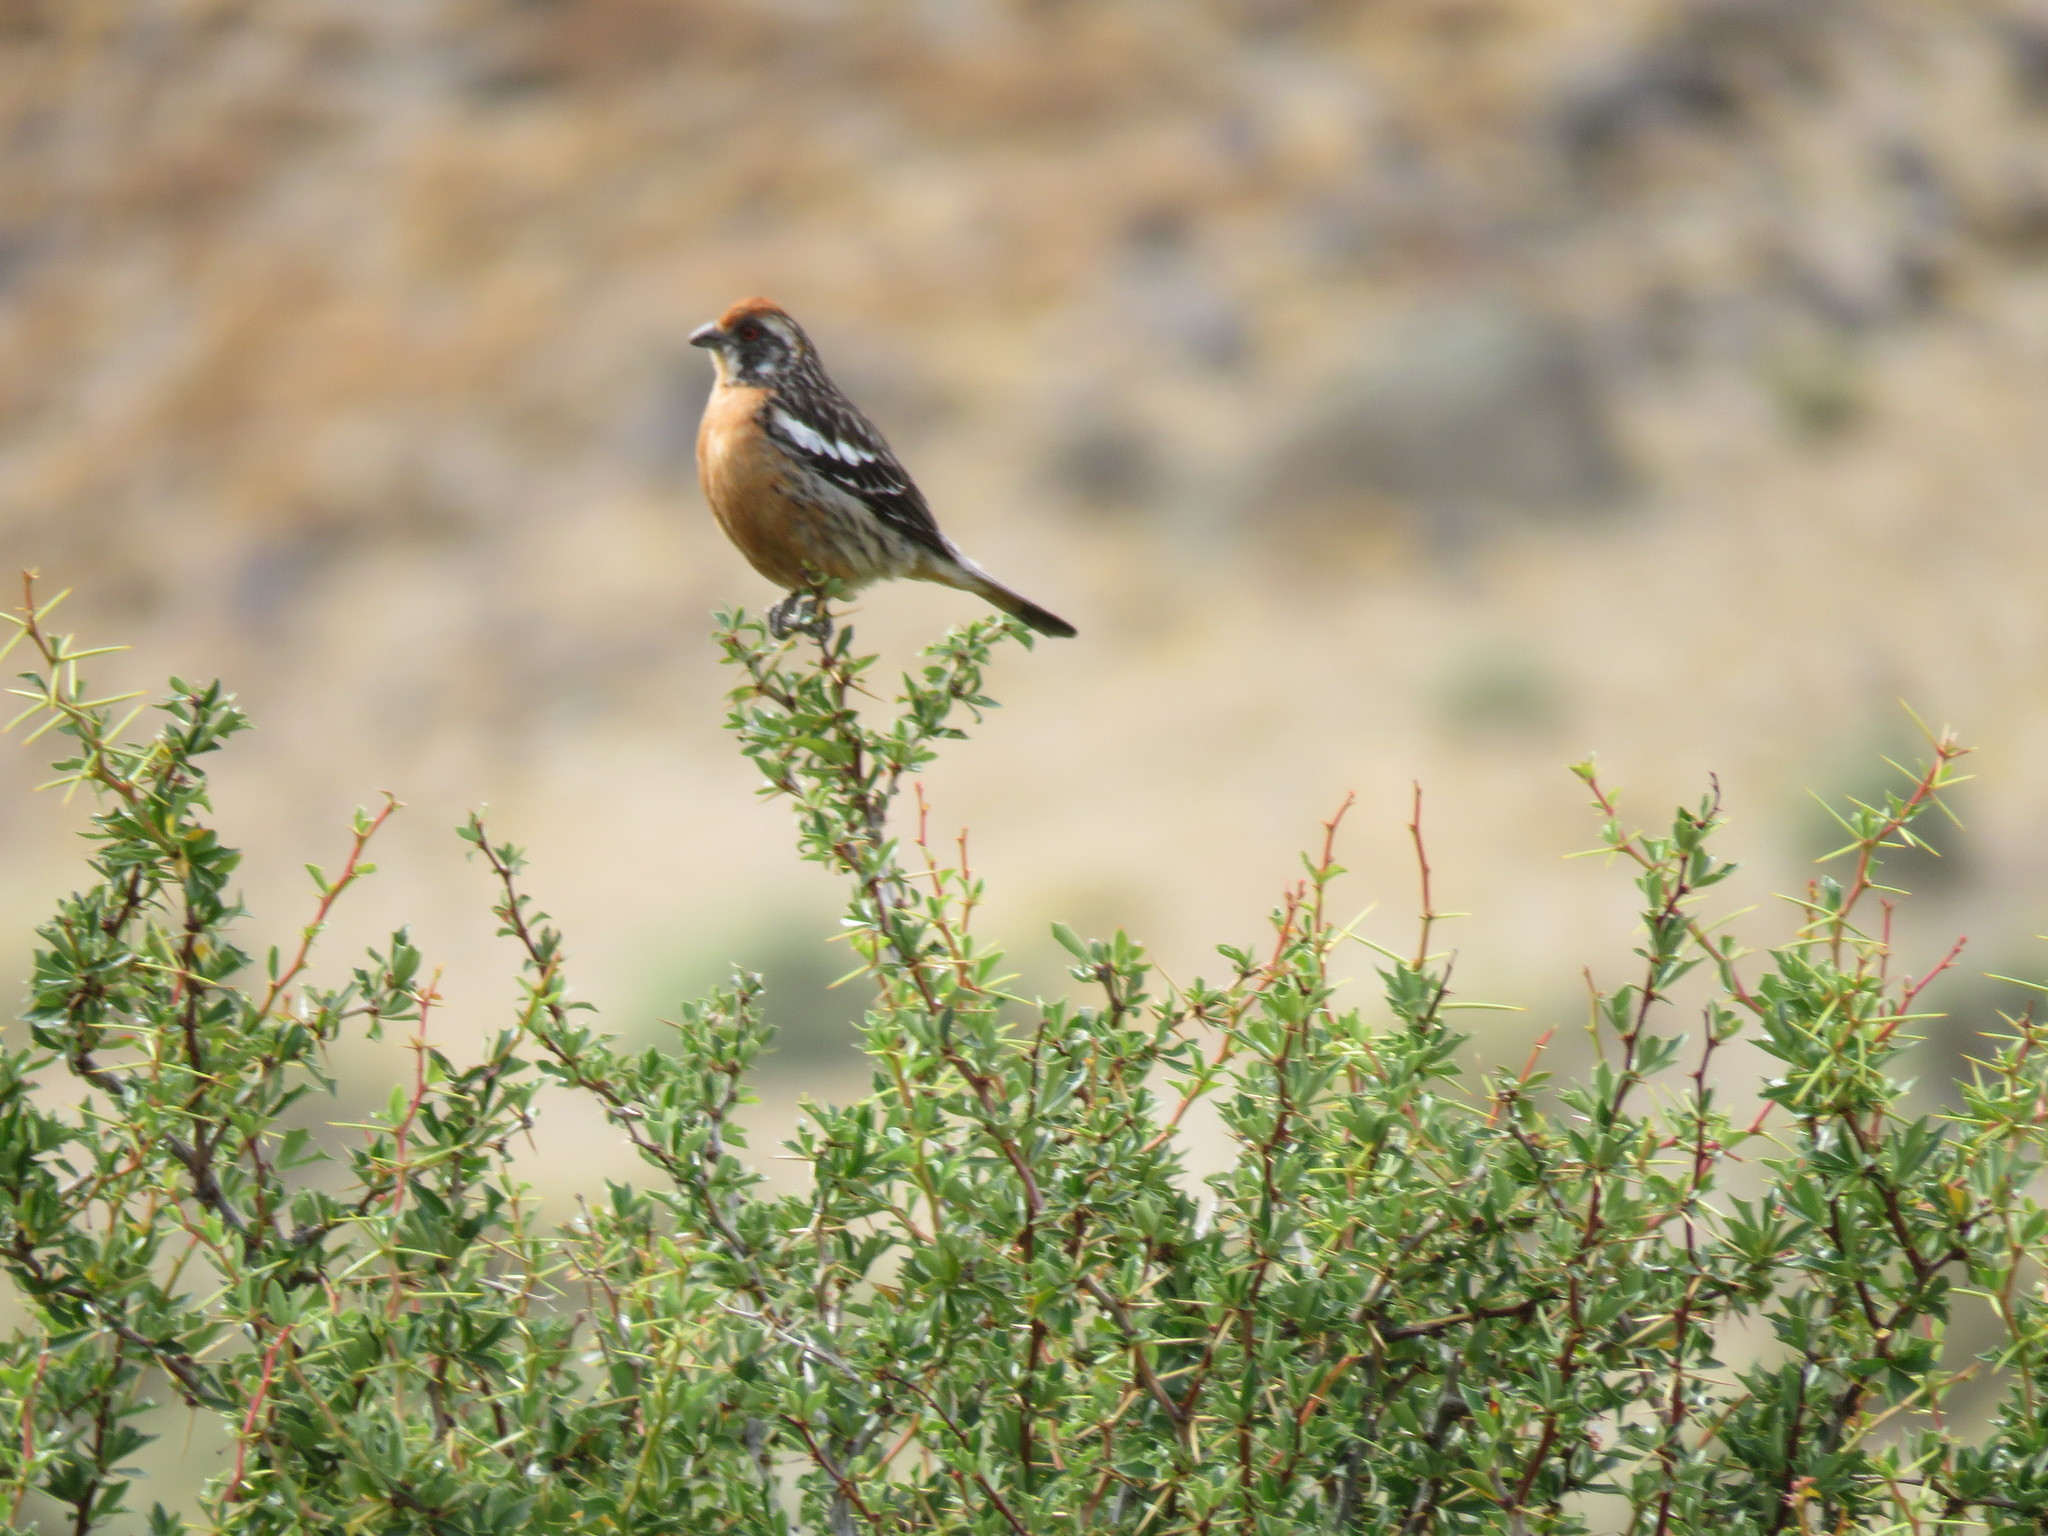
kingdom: Animalia
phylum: Chordata
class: Aves
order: Passeriformes
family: Cotingidae
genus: Phytotoma
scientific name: Phytotoma rara
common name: Rufous-tailed plantcutter
